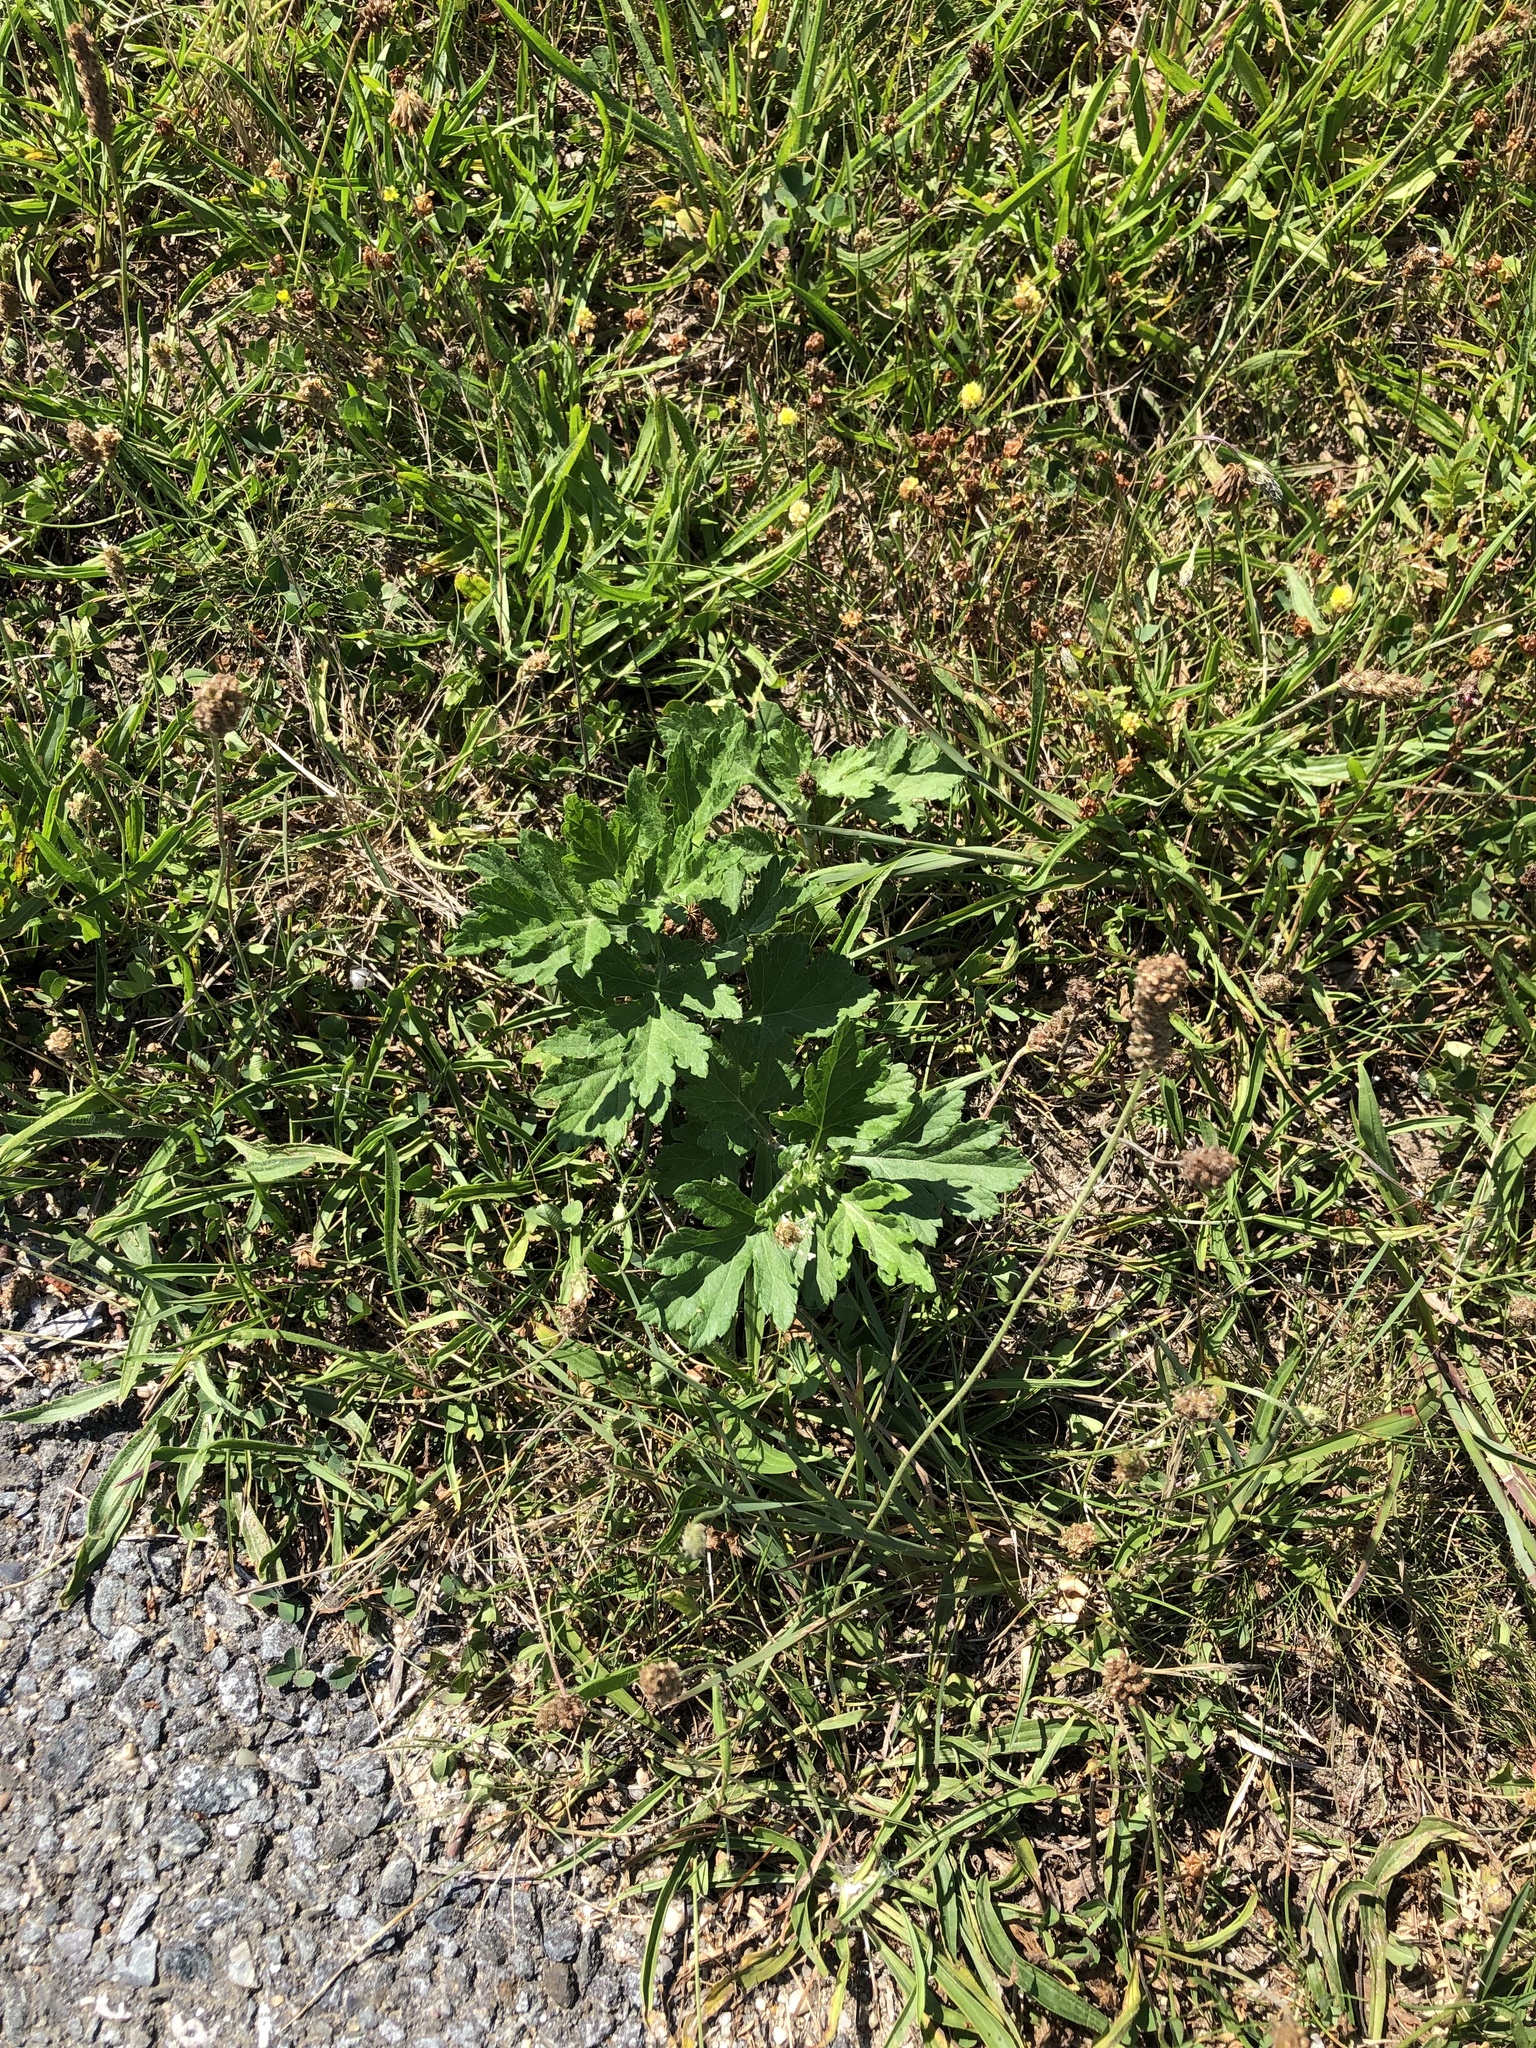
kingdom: Plantae
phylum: Tracheophyta
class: Magnoliopsida
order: Asterales
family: Asteraceae
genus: Artemisia
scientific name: Artemisia vulgaris
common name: Mugwort
